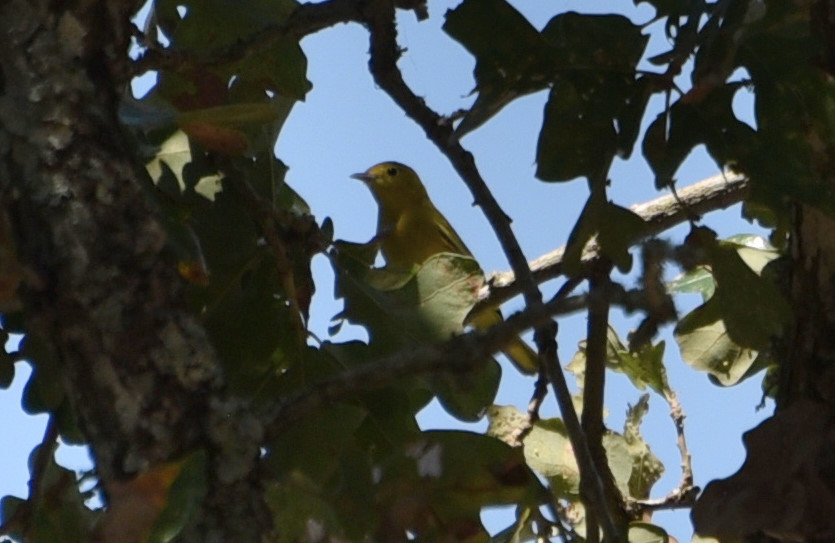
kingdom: Animalia
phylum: Chordata
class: Aves
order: Passeriformes
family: Parulidae
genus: Setophaga
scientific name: Setophaga petechia
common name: Yellow warbler
